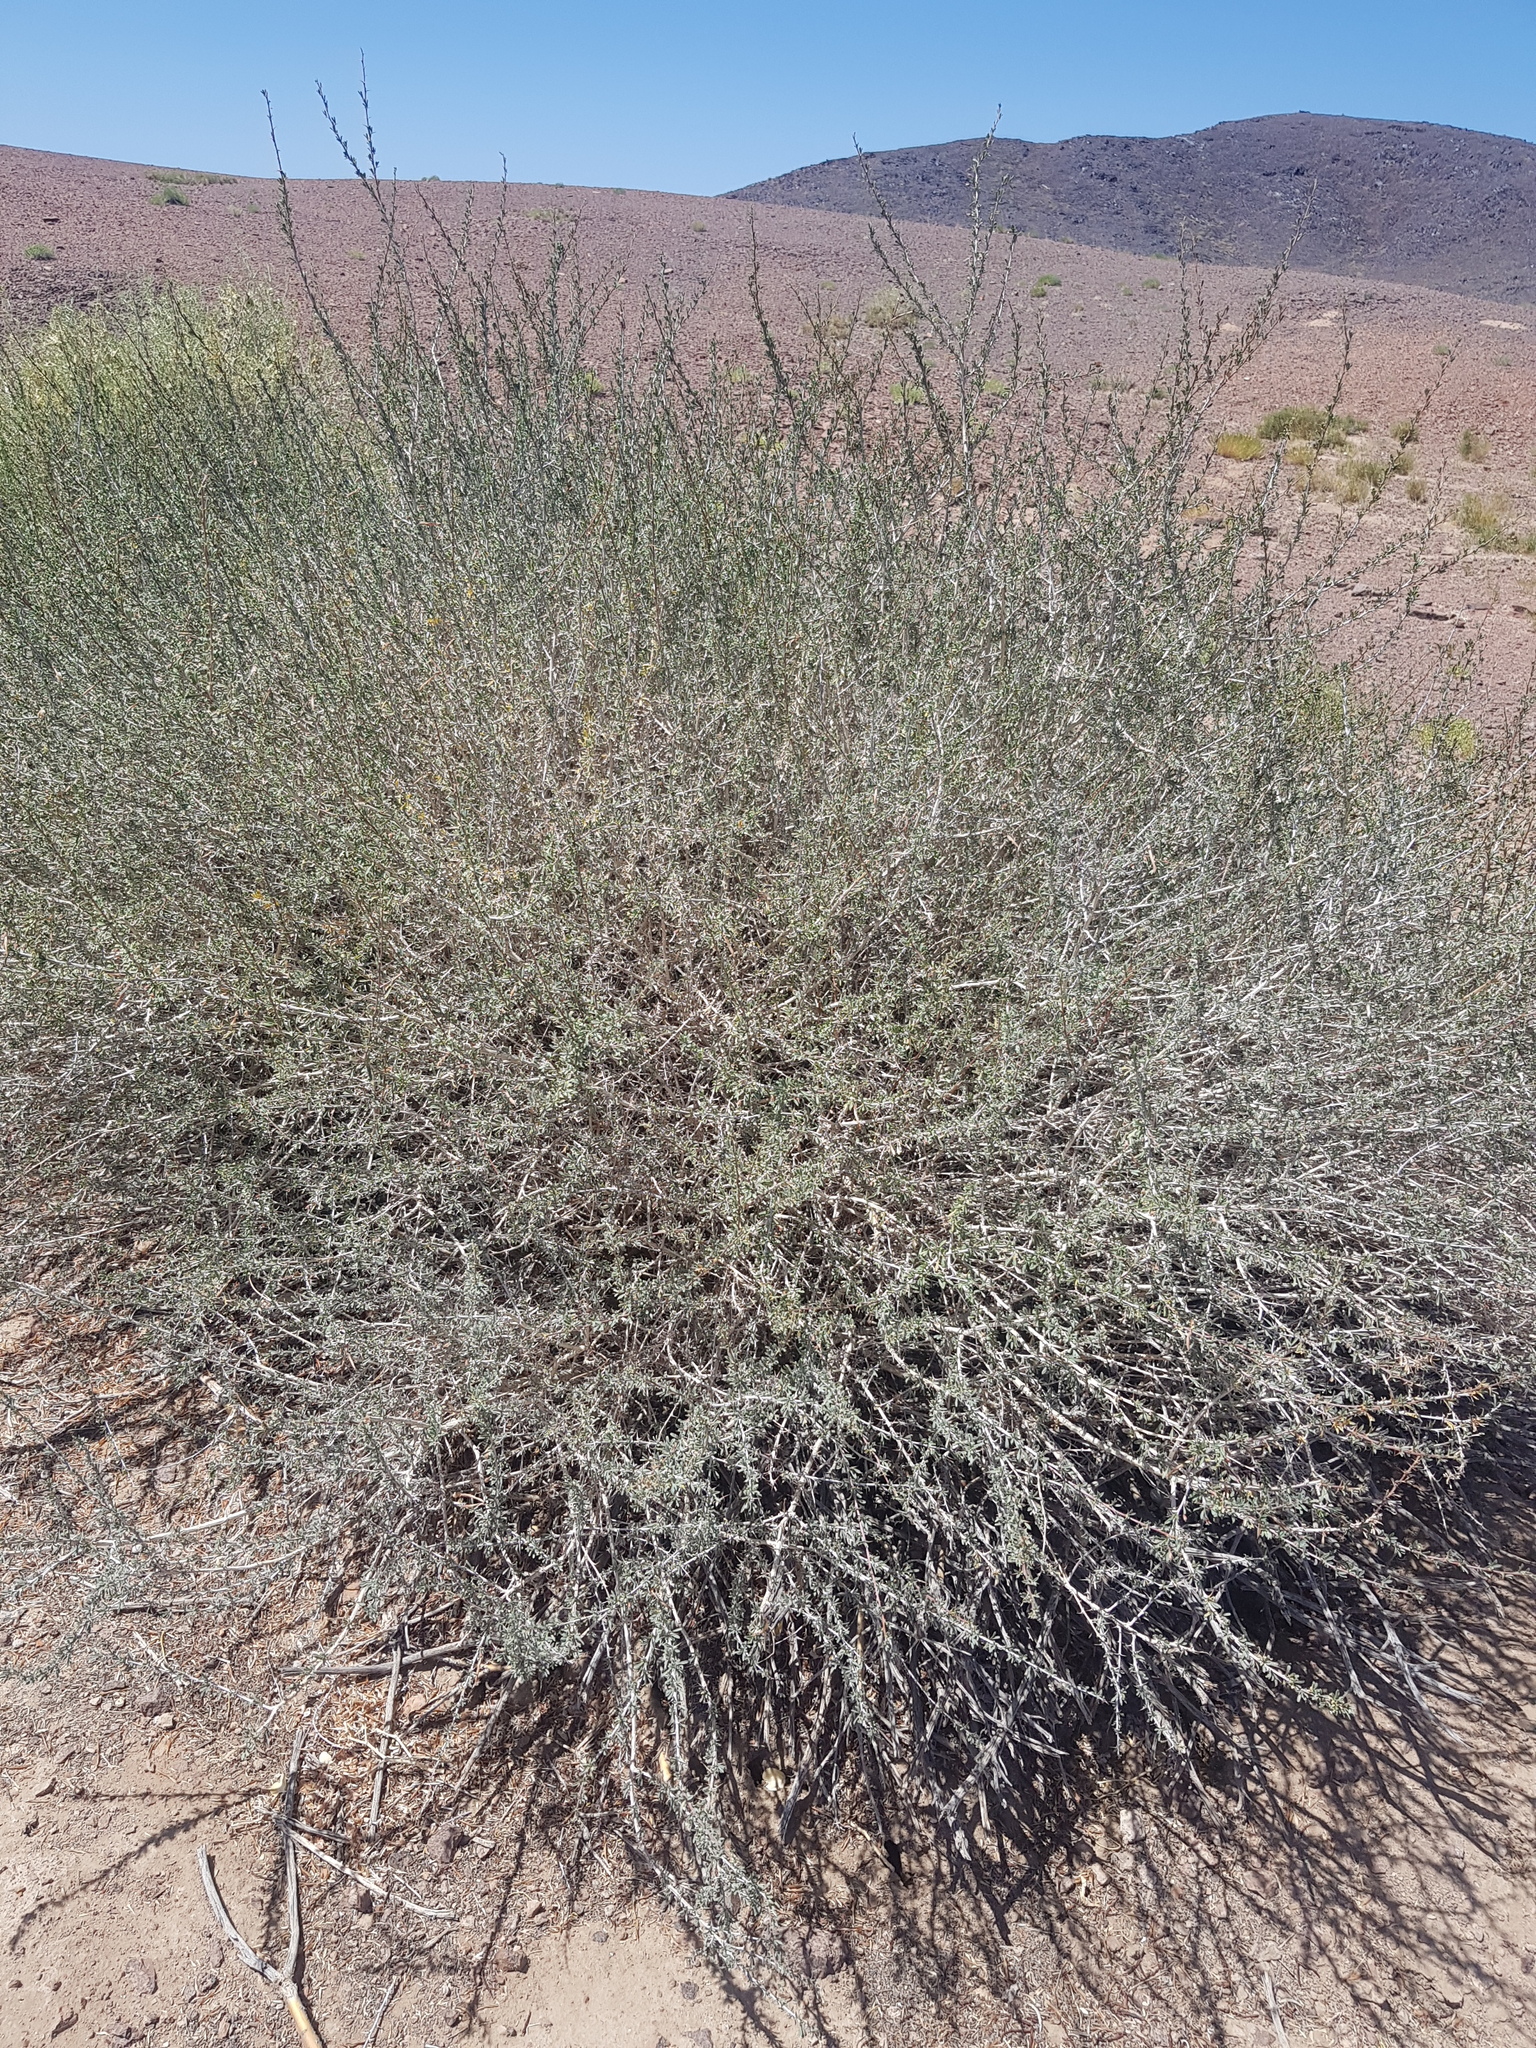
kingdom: Plantae
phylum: Tracheophyta
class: Magnoliopsida
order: Fabales
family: Fabaceae
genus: Caragana
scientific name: Caragana leucophloea
